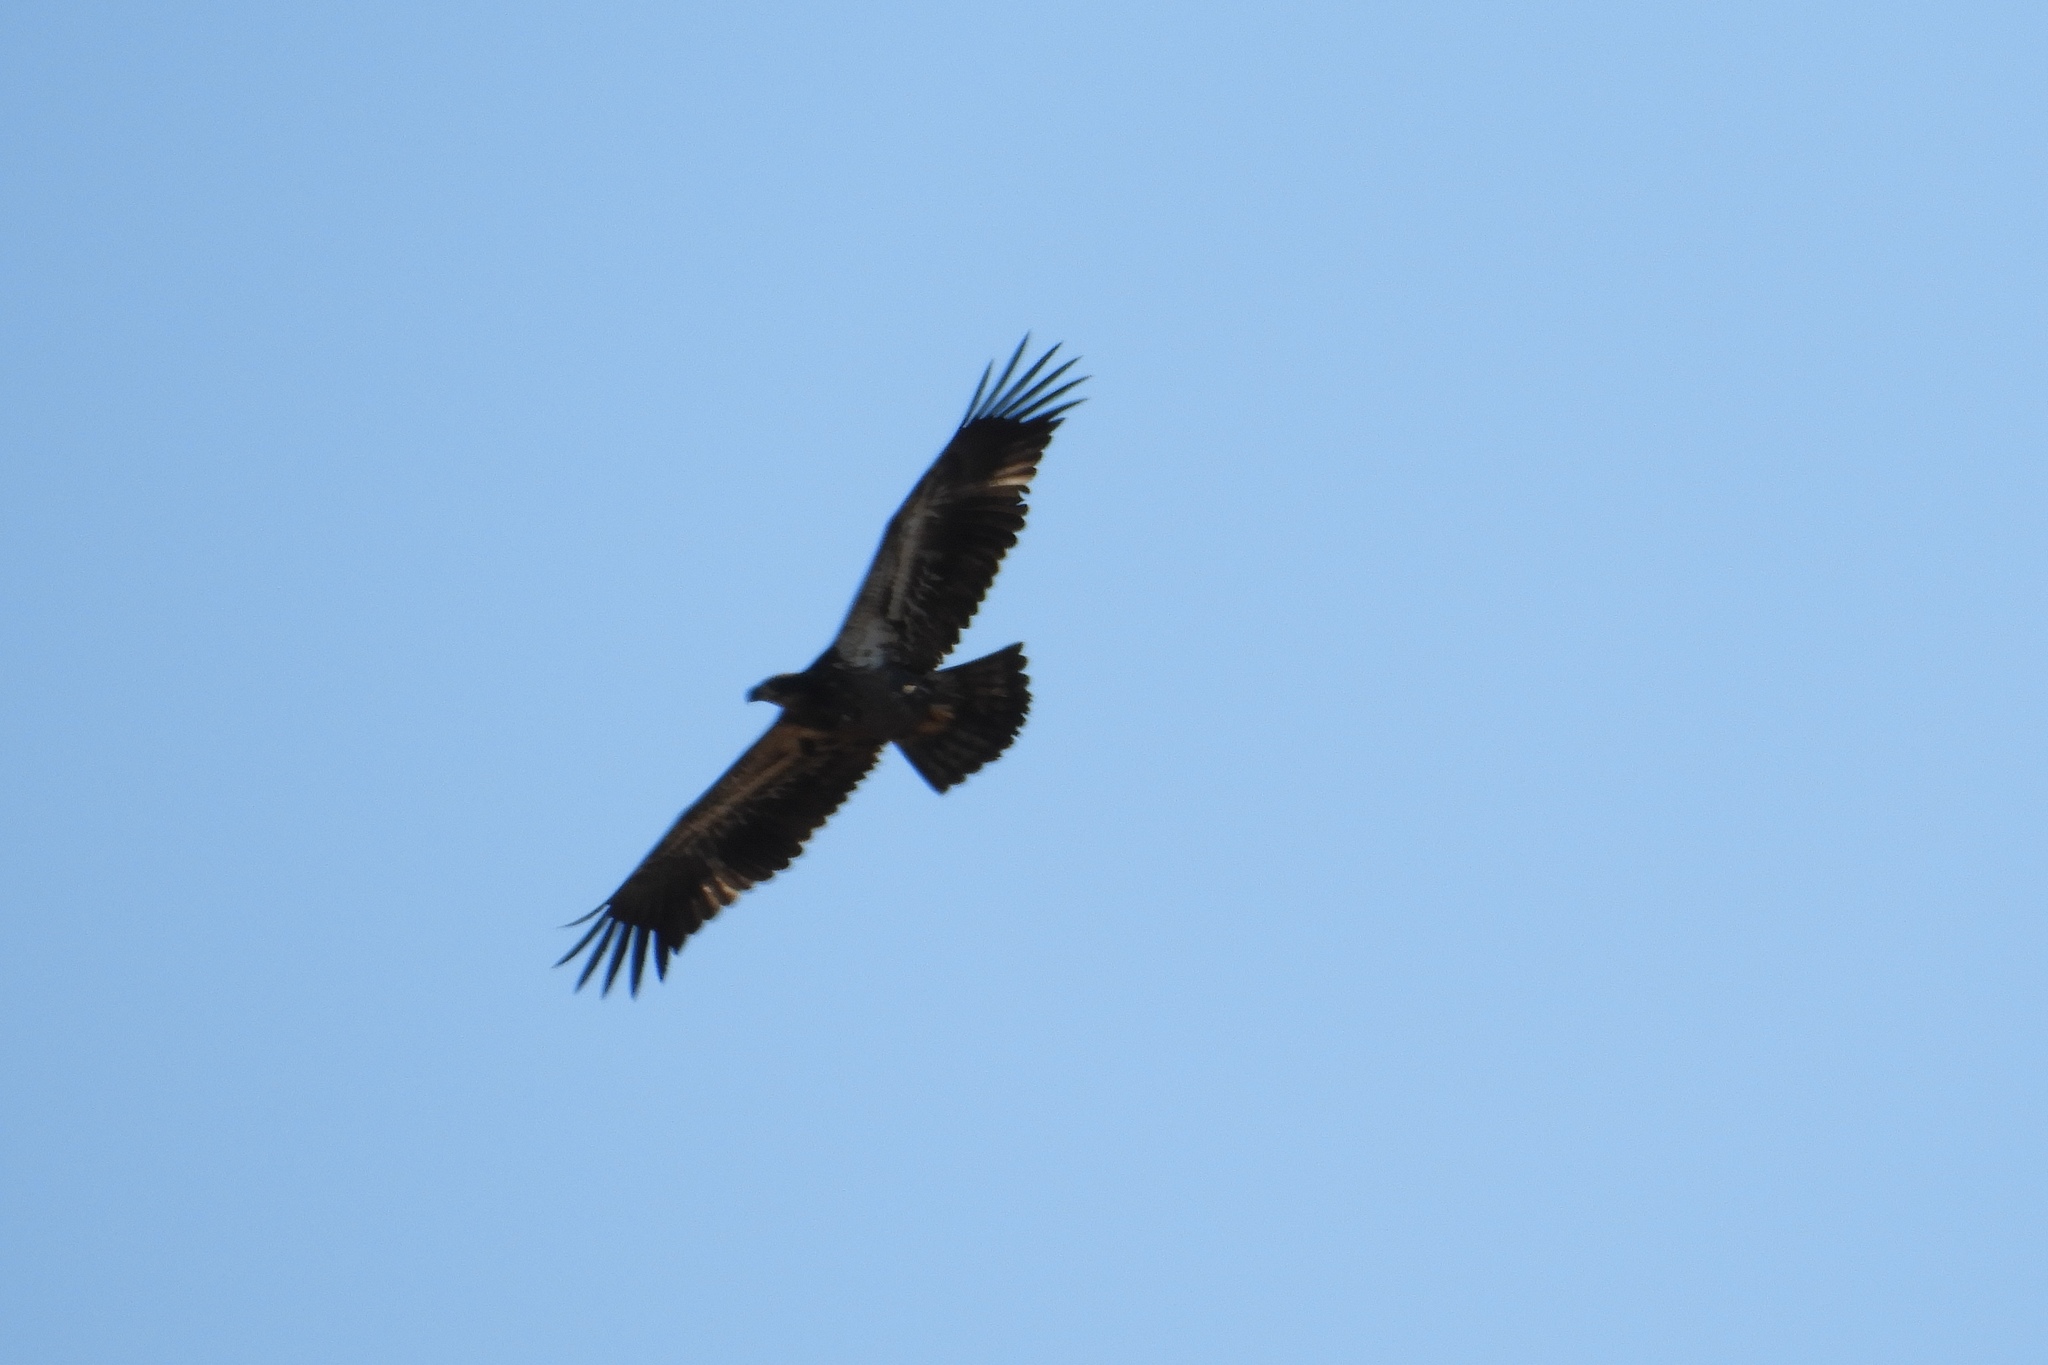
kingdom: Animalia
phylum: Chordata
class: Aves
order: Accipitriformes
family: Accipitridae
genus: Haliaeetus
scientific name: Haliaeetus leucocephalus
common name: Bald eagle
